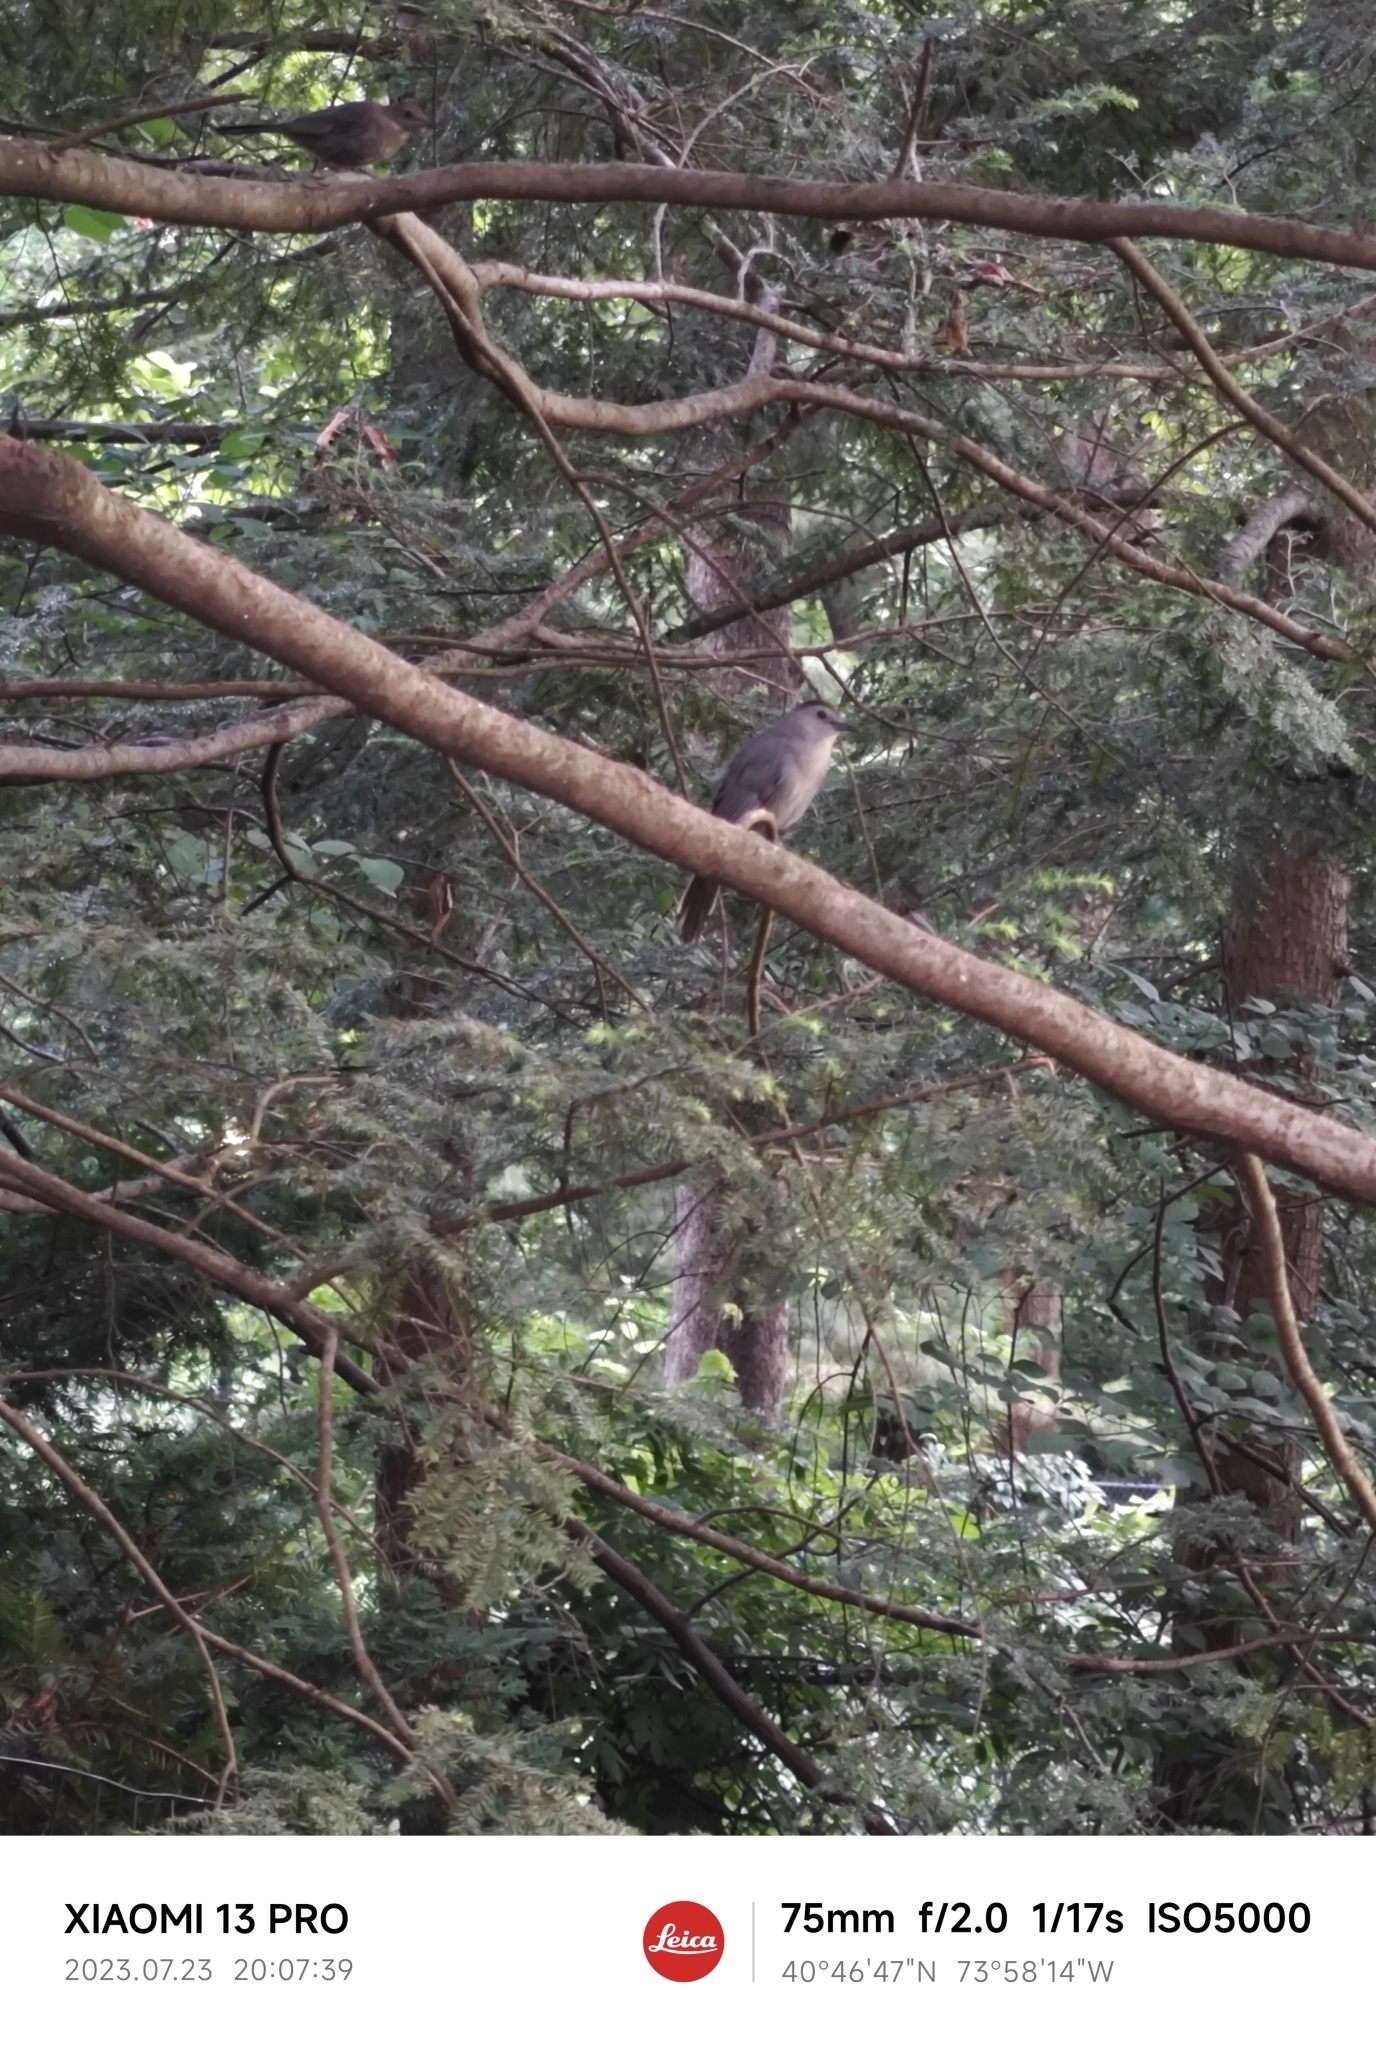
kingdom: Animalia
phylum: Chordata
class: Aves
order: Passeriformes
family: Mimidae
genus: Dumetella
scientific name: Dumetella carolinensis
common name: Gray catbird
